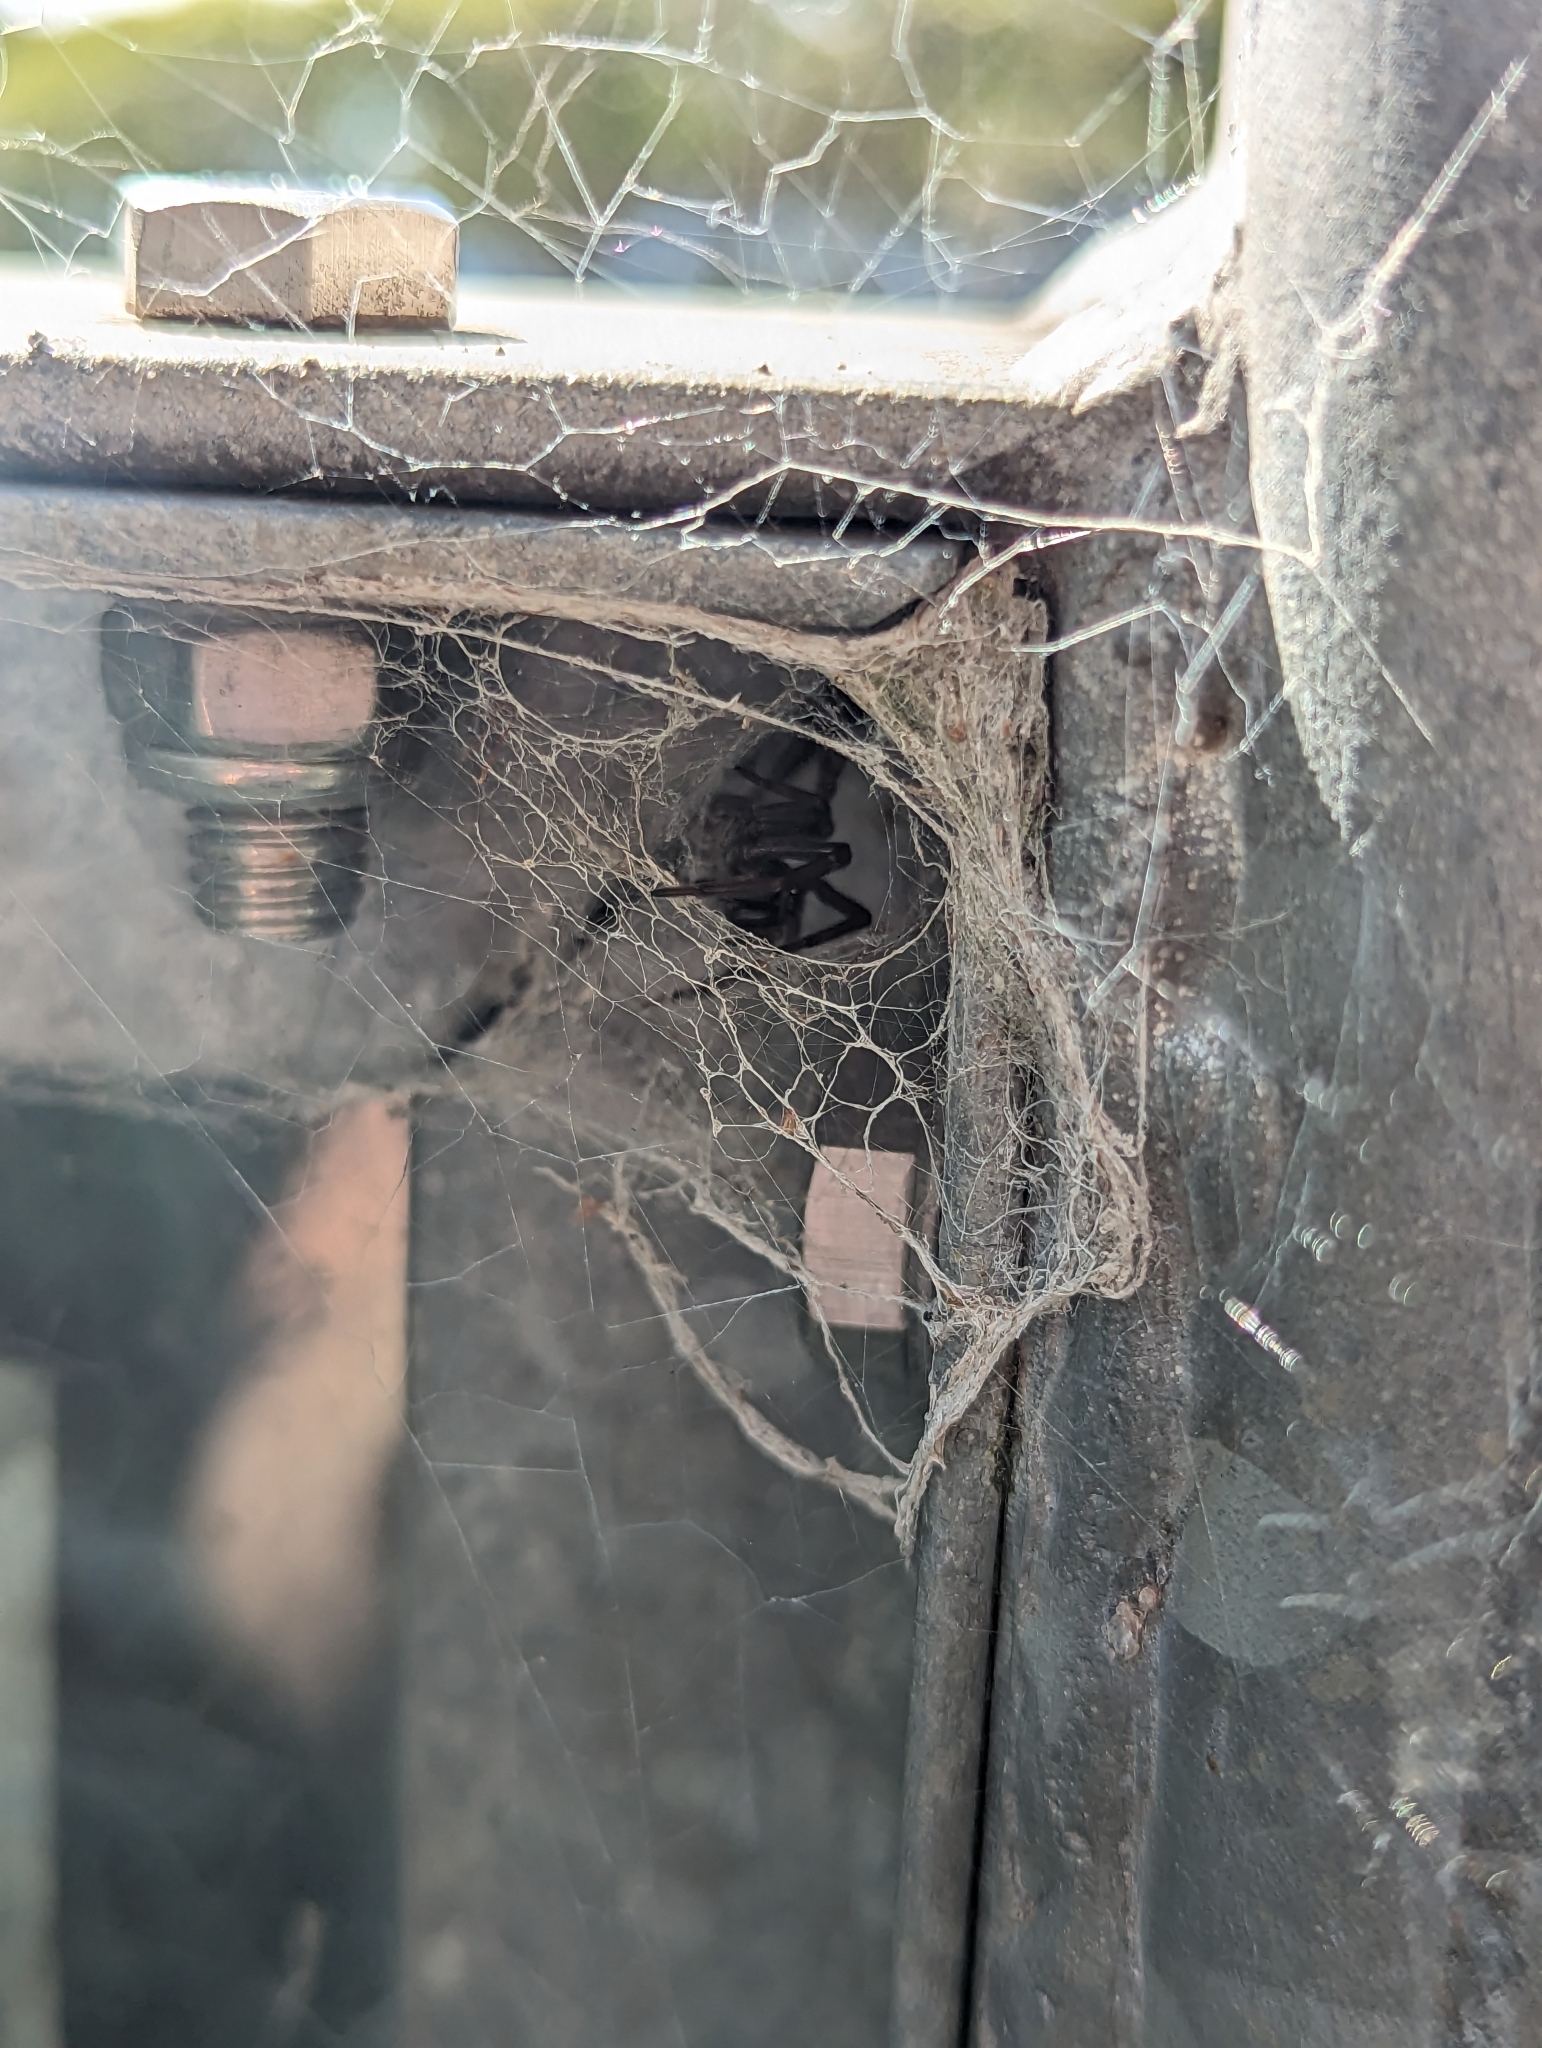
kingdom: Animalia
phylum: Arthropoda
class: Arachnida
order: Araneae
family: Desidae
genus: Badumna
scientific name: Badumna insignis
